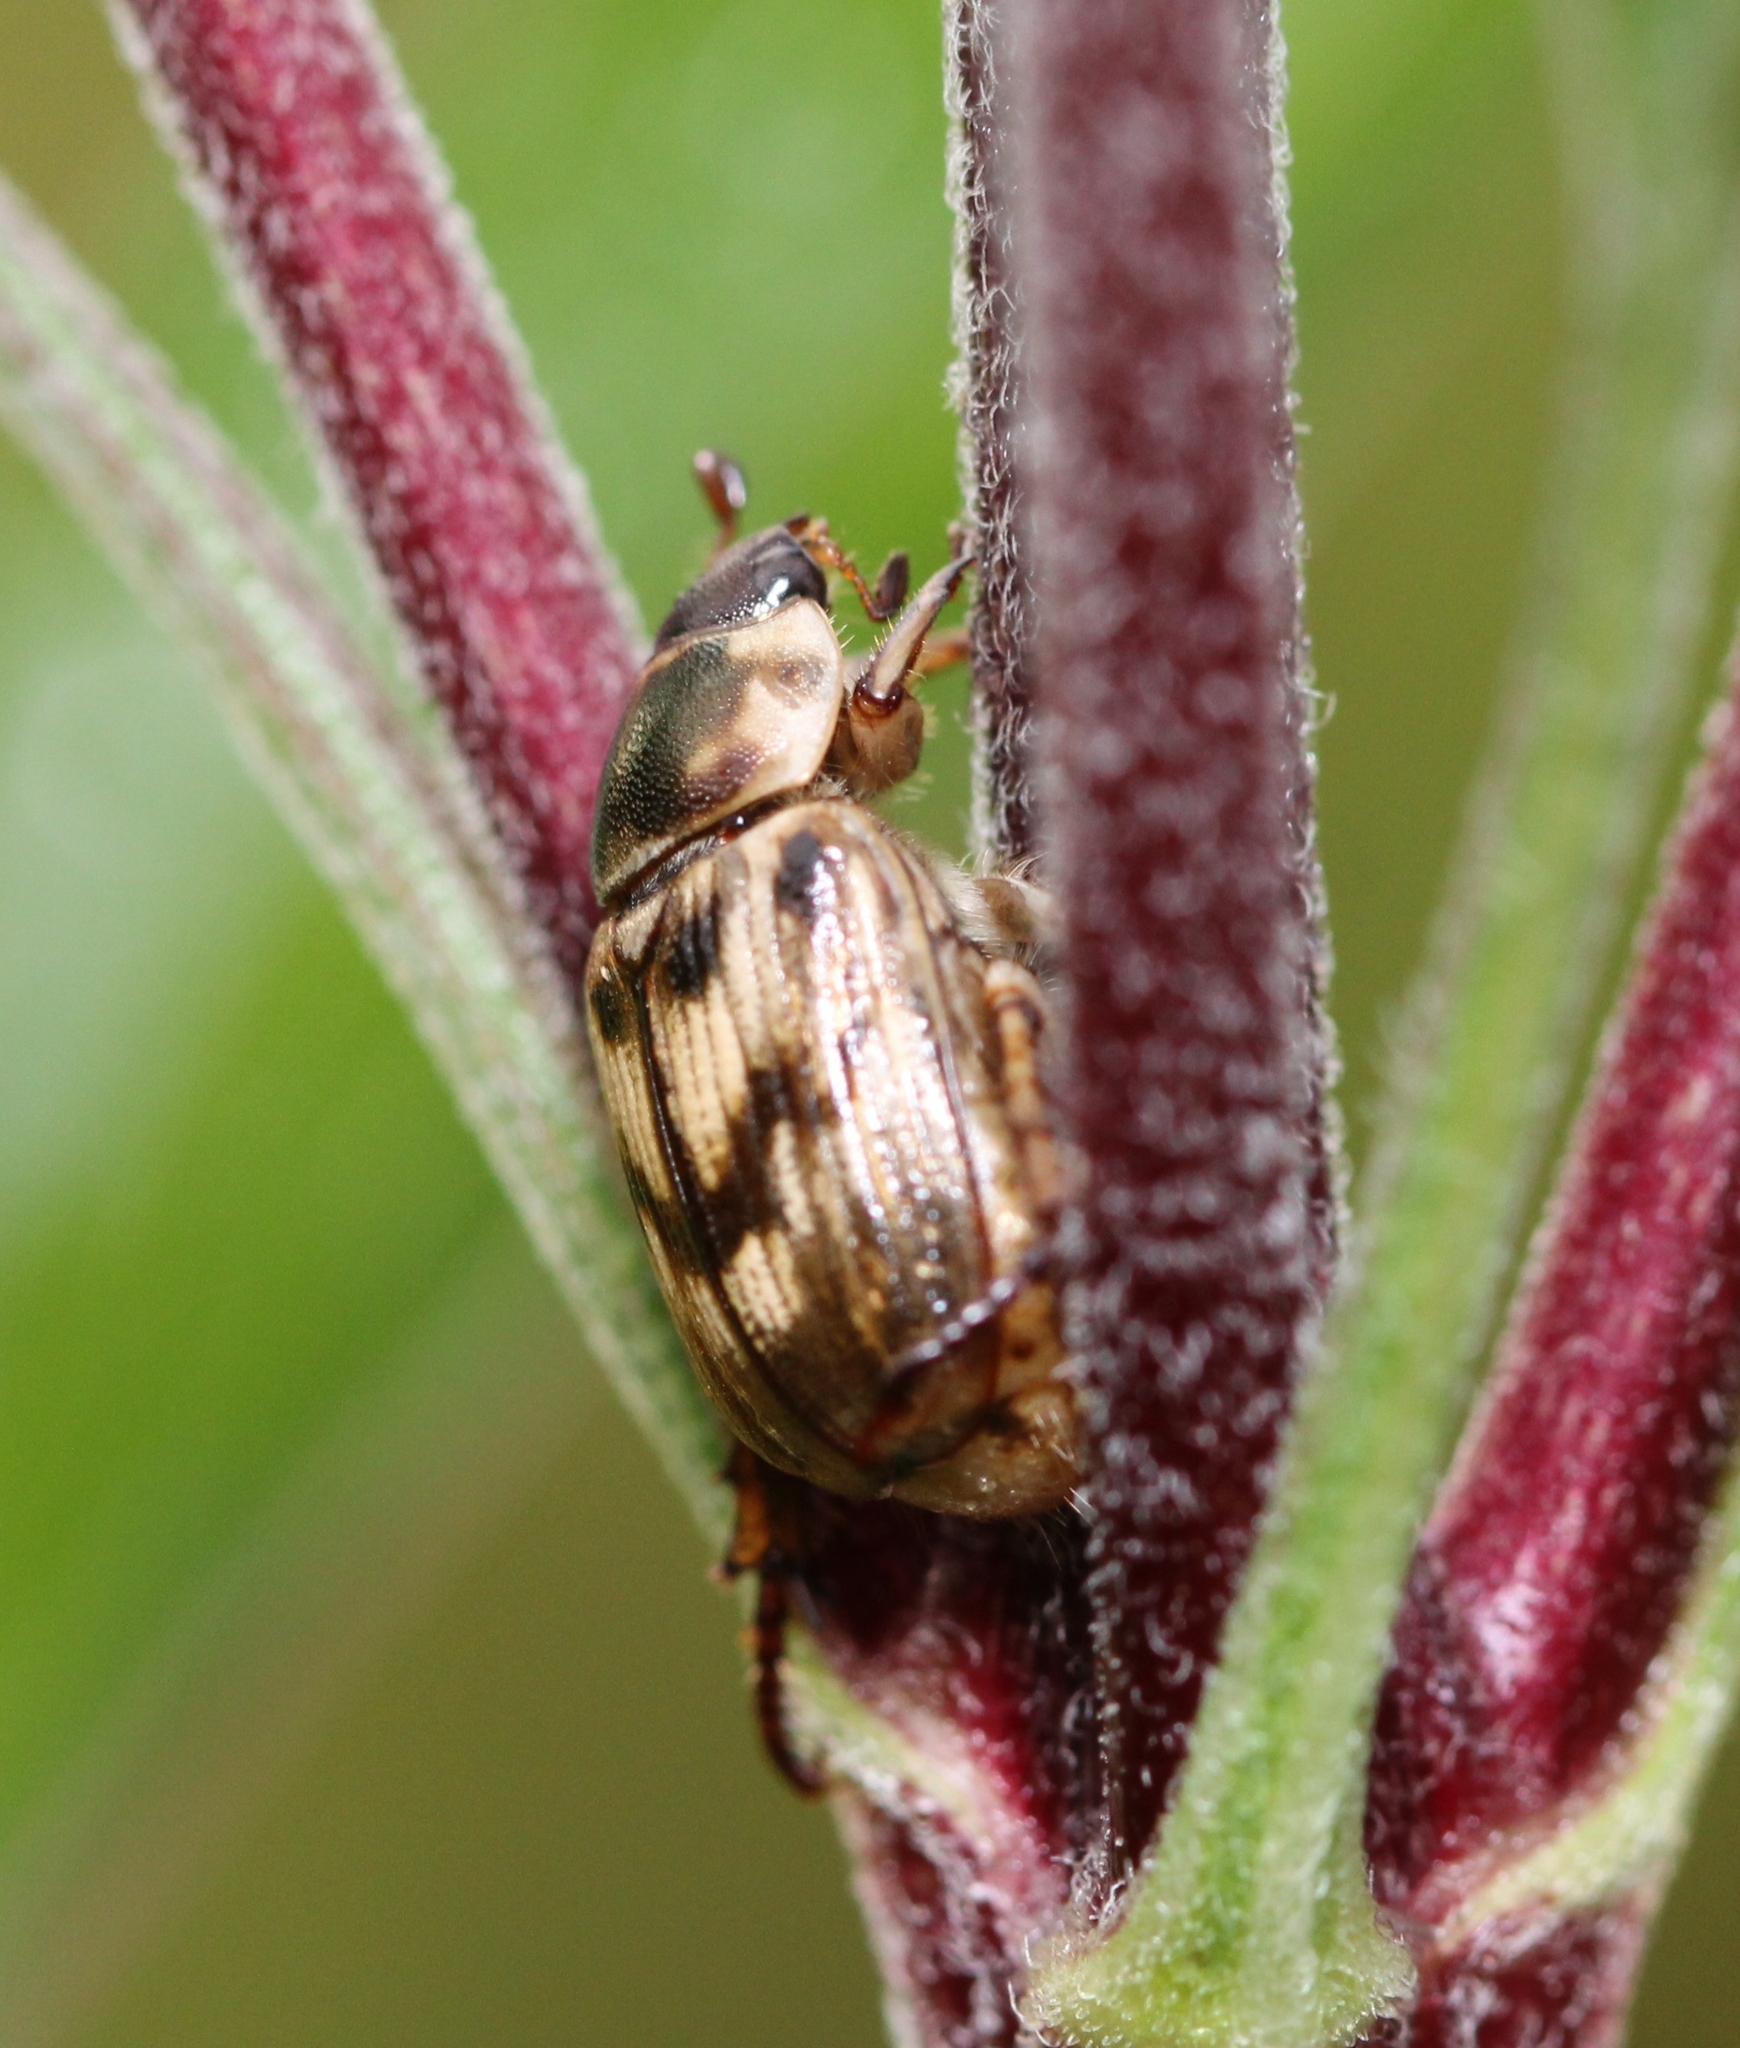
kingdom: Animalia
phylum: Arthropoda
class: Insecta
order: Coleoptera
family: Scarabaeidae
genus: Exomala
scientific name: Exomala orientalis
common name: Oriental beetle
